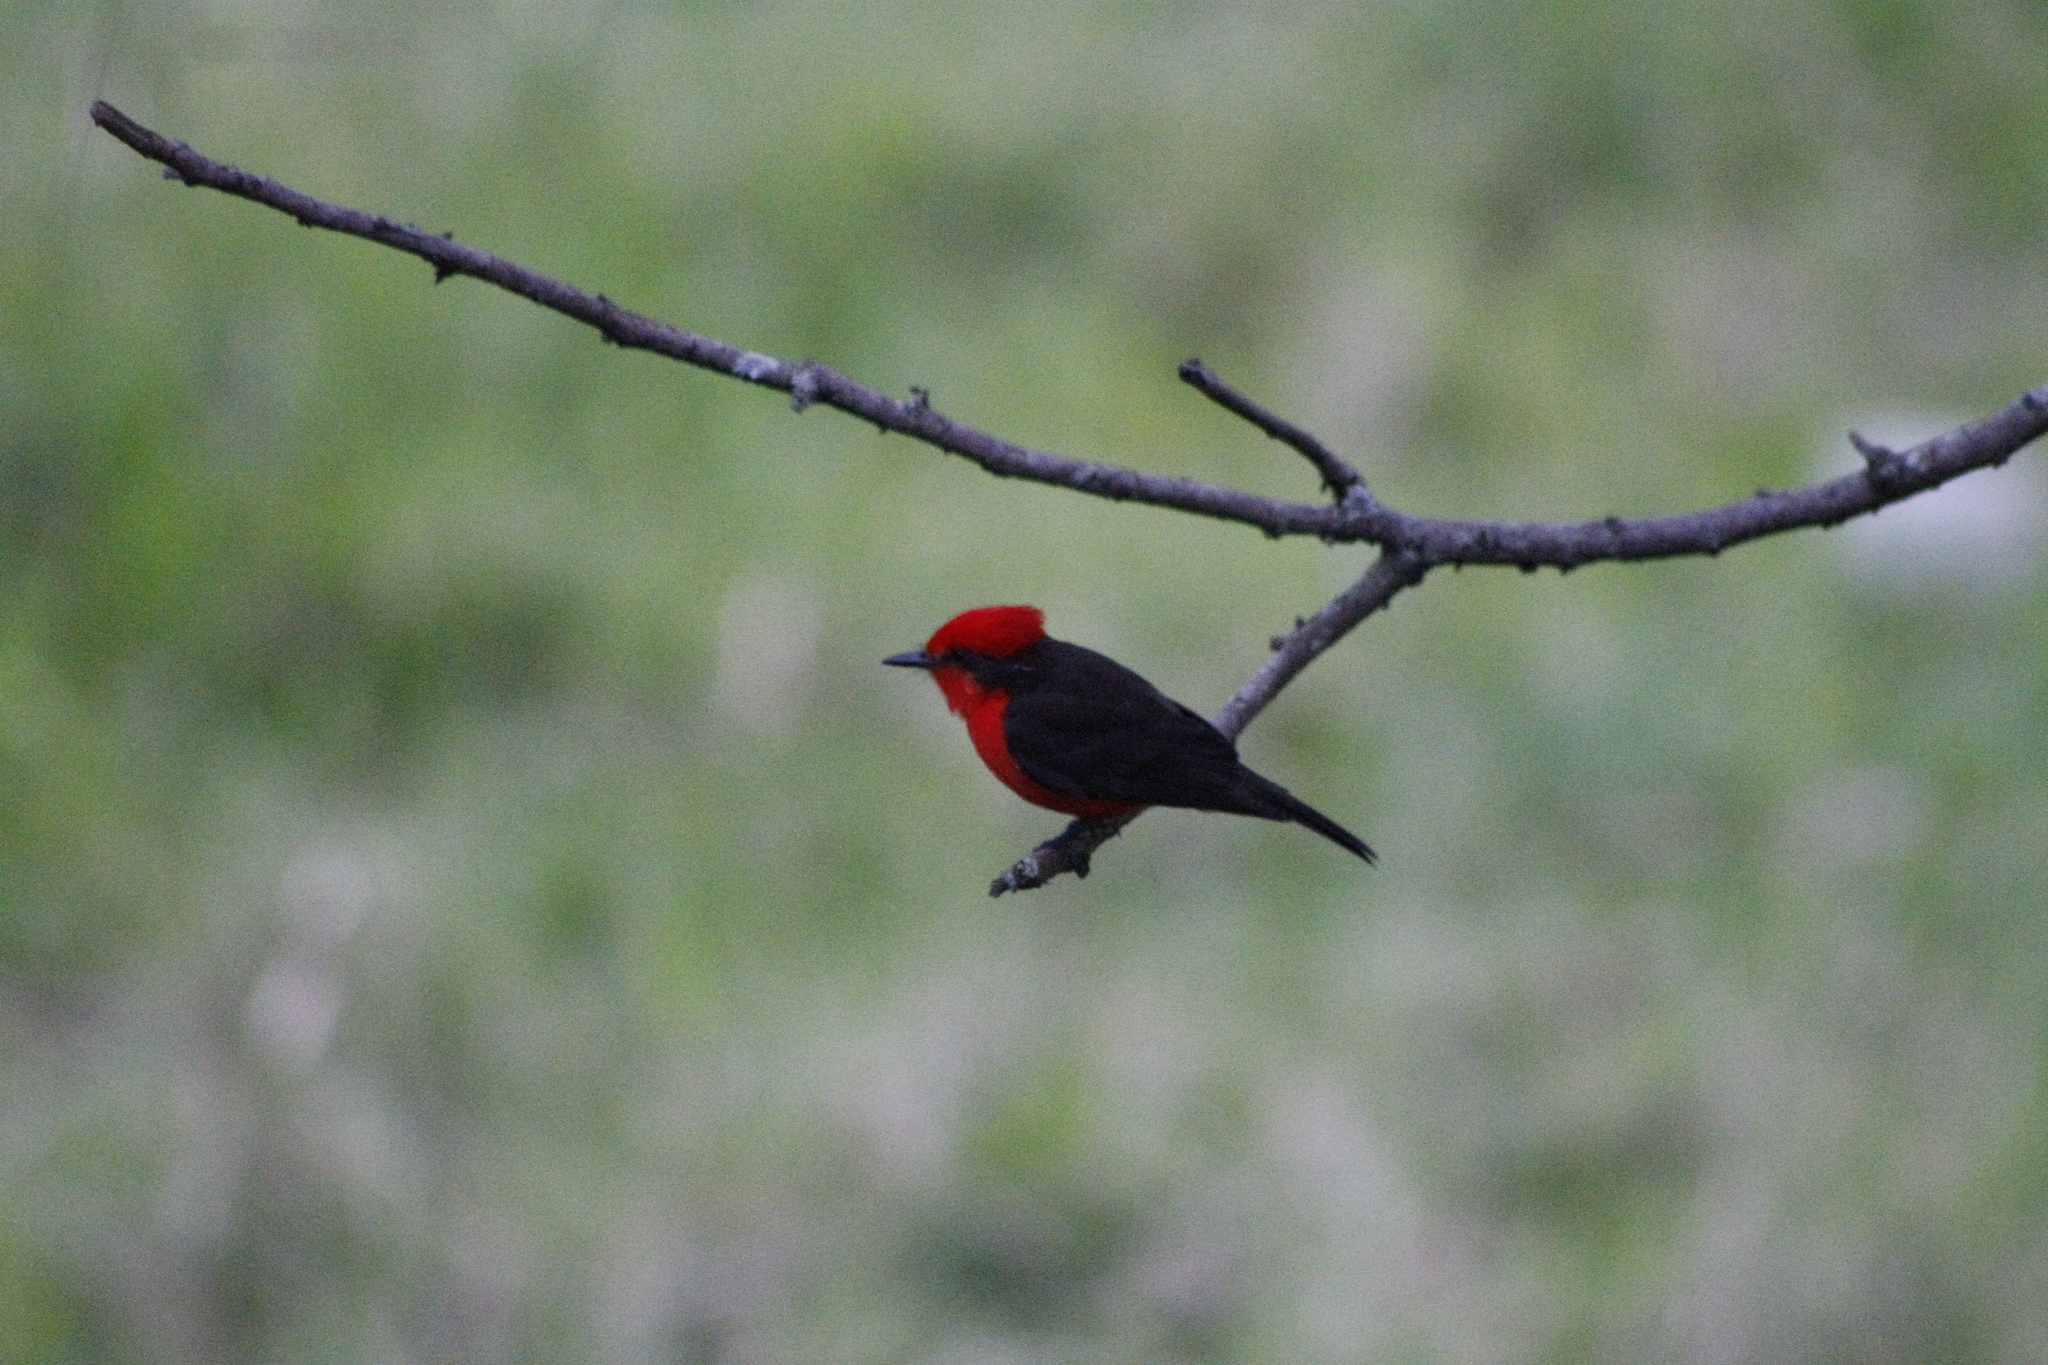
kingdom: Animalia
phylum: Chordata
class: Aves
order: Passeriformes
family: Tyrannidae
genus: Pyrocephalus
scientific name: Pyrocephalus rubinus
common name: Vermilion flycatcher
